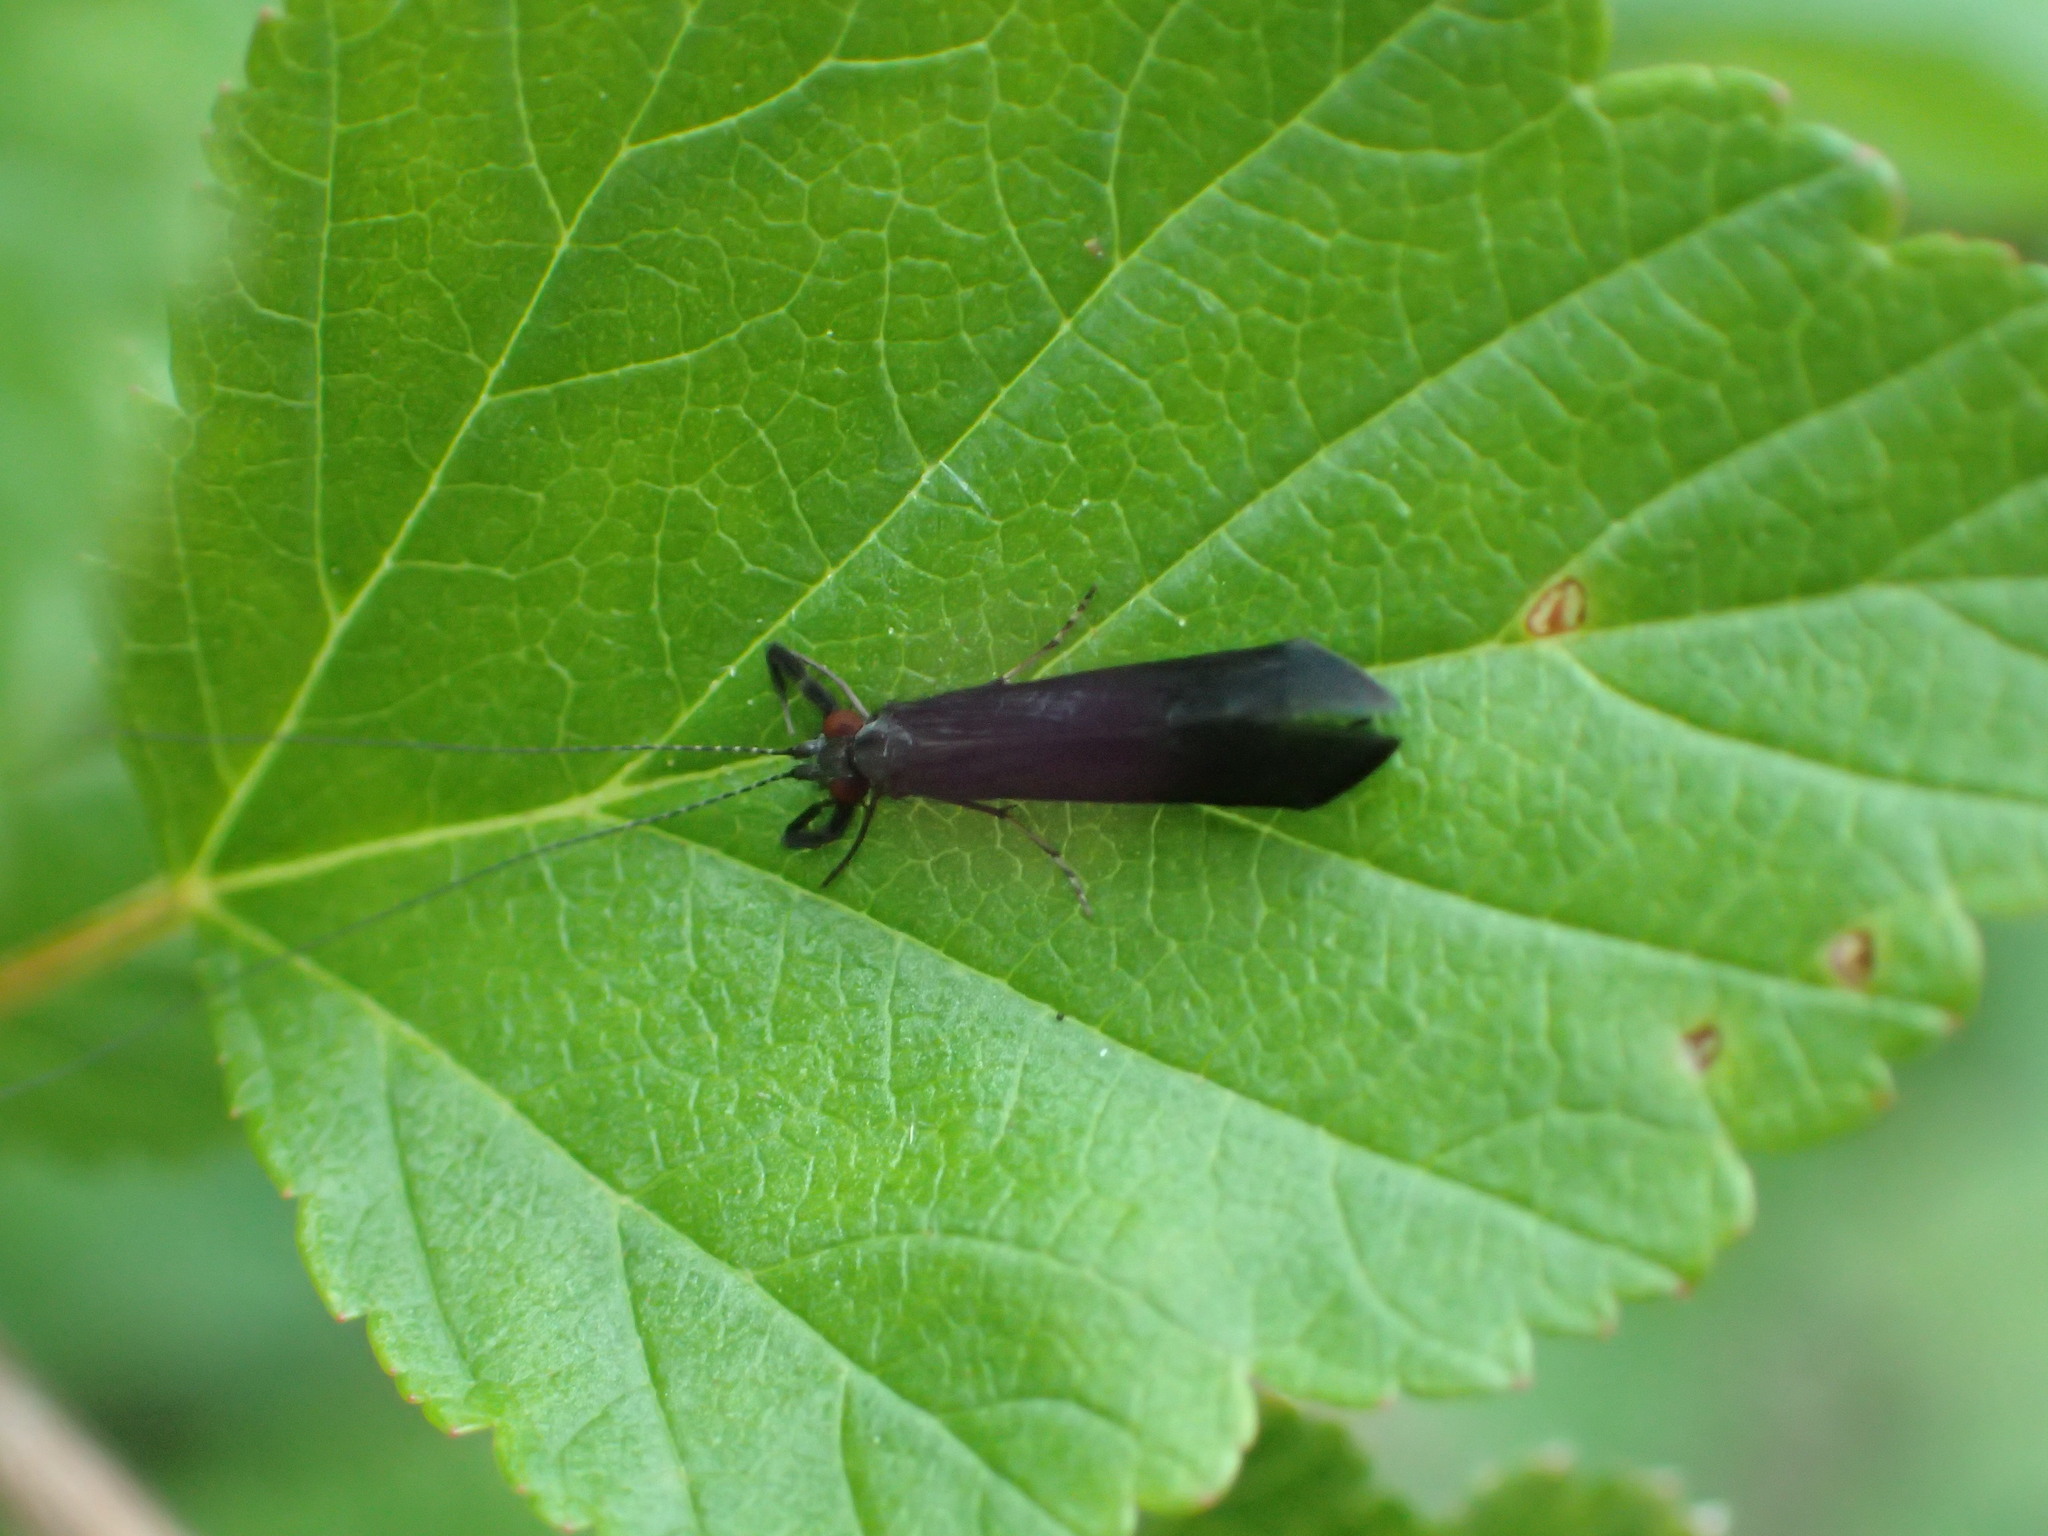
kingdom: Animalia
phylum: Arthropoda
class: Insecta
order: Trichoptera
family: Leptoceridae
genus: Mystacides
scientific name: Mystacides sepulchralis
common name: Black dancer caddisfly
